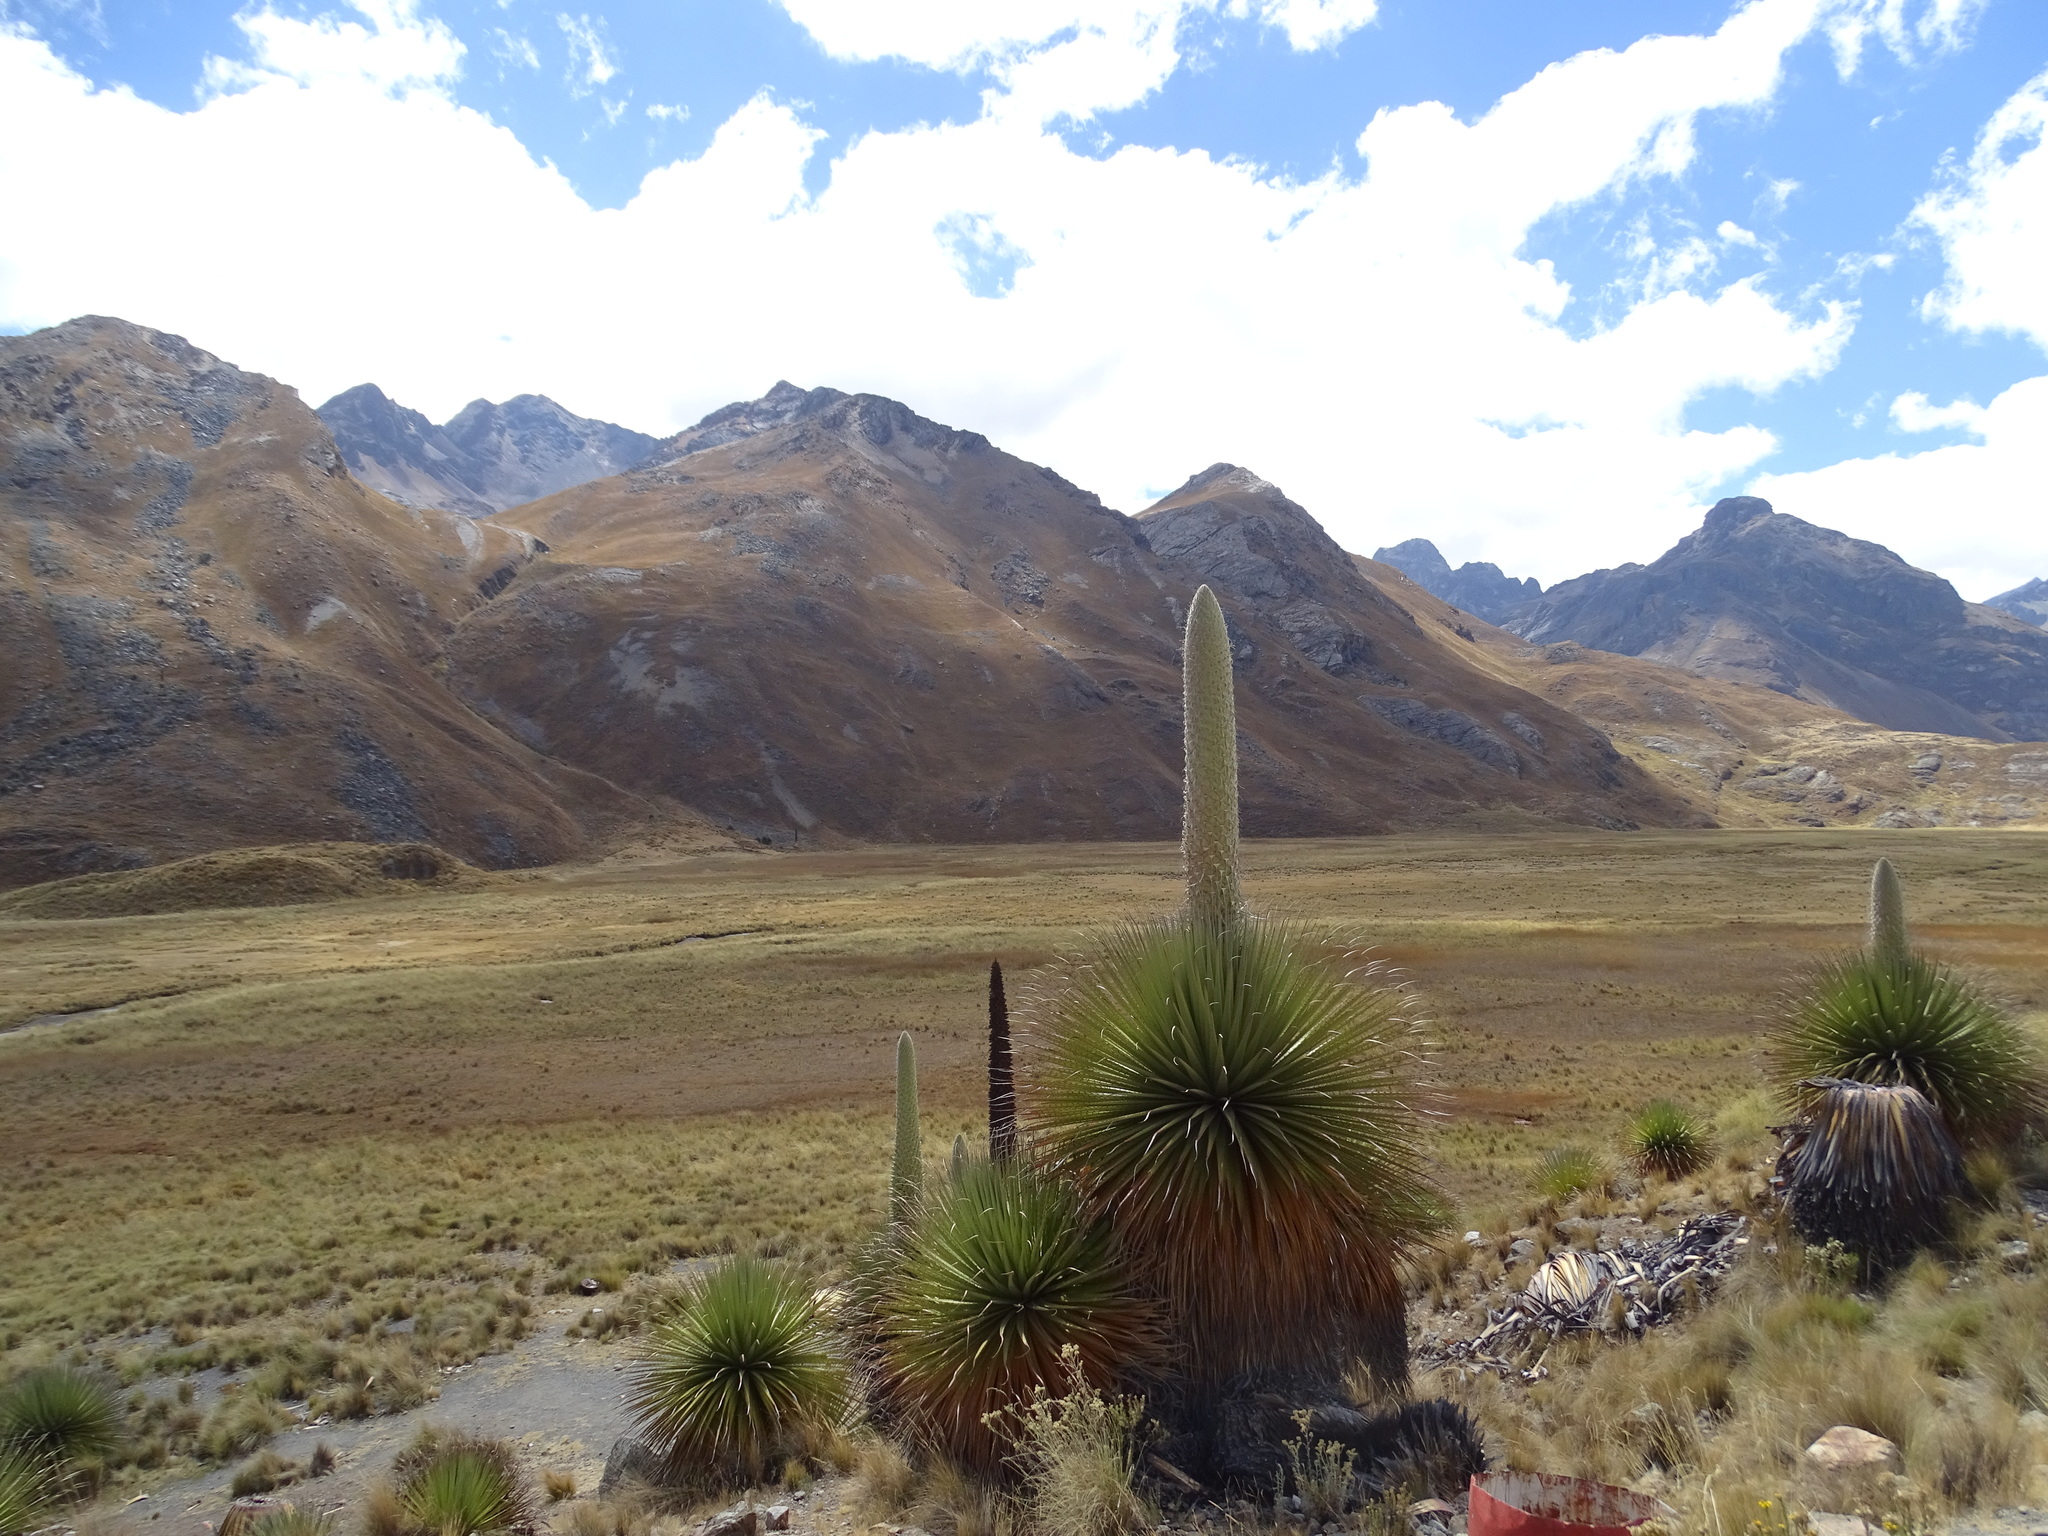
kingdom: Plantae
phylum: Tracheophyta
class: Liliopsida
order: Poales
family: Bromeliaceae
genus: Puya
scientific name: Puya raimondii
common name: Queen of the andes
